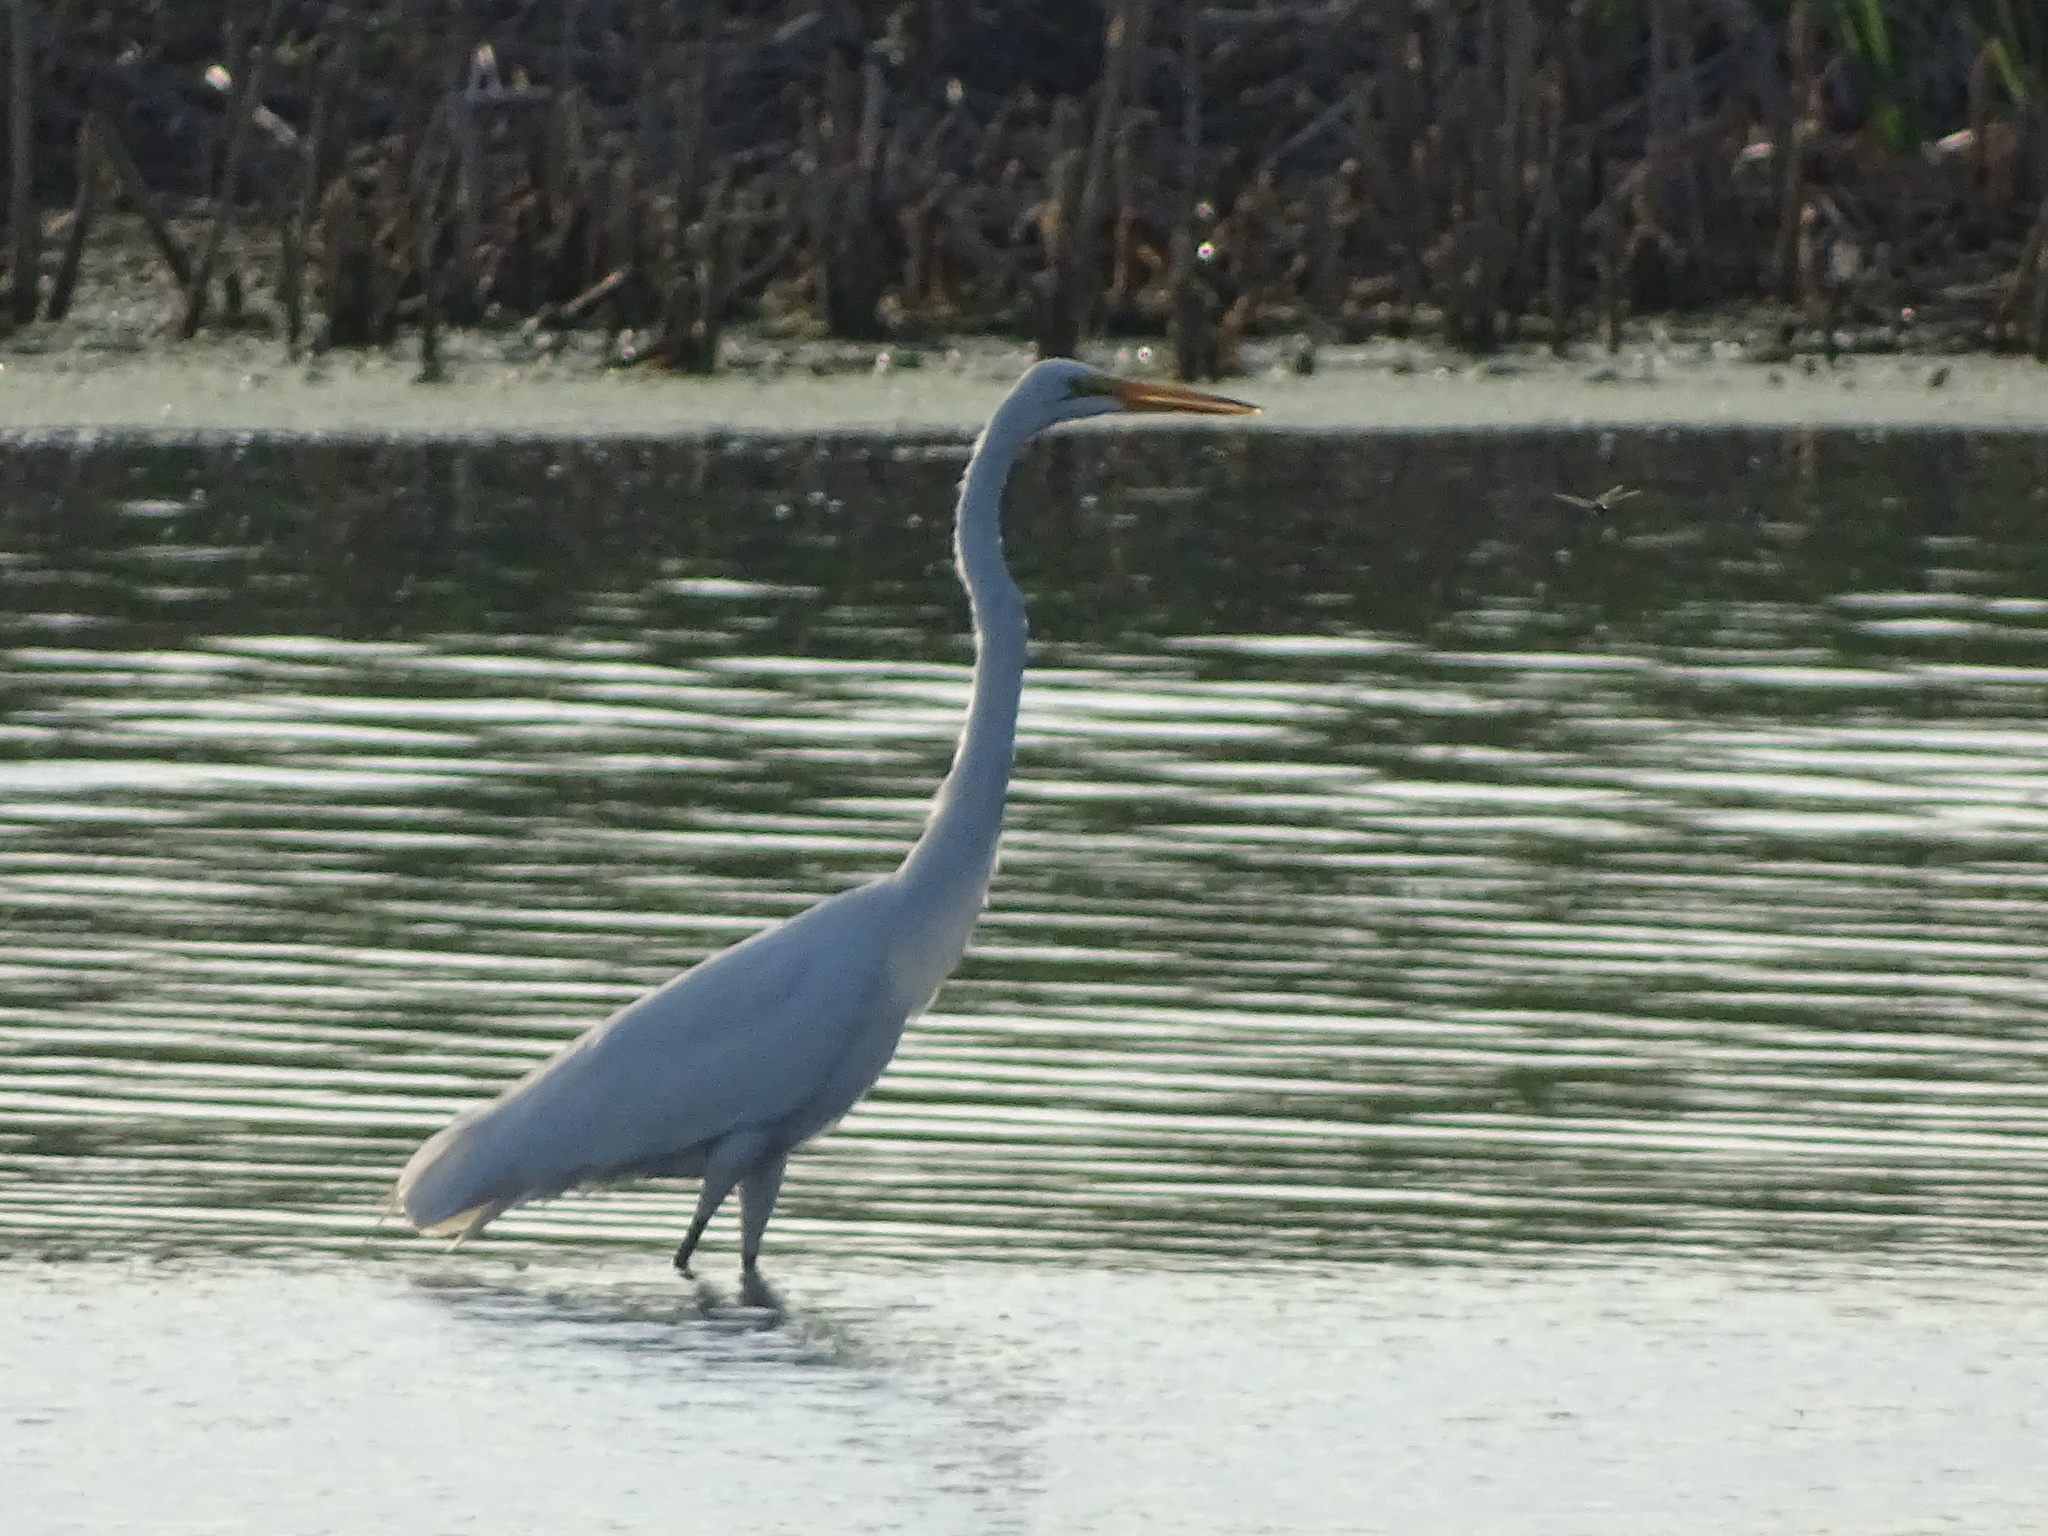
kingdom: Animalia
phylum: Chordata
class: Aves
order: Pelecaniformes
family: Ardeidae
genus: Ardea
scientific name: Ardea alba
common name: Great egret
